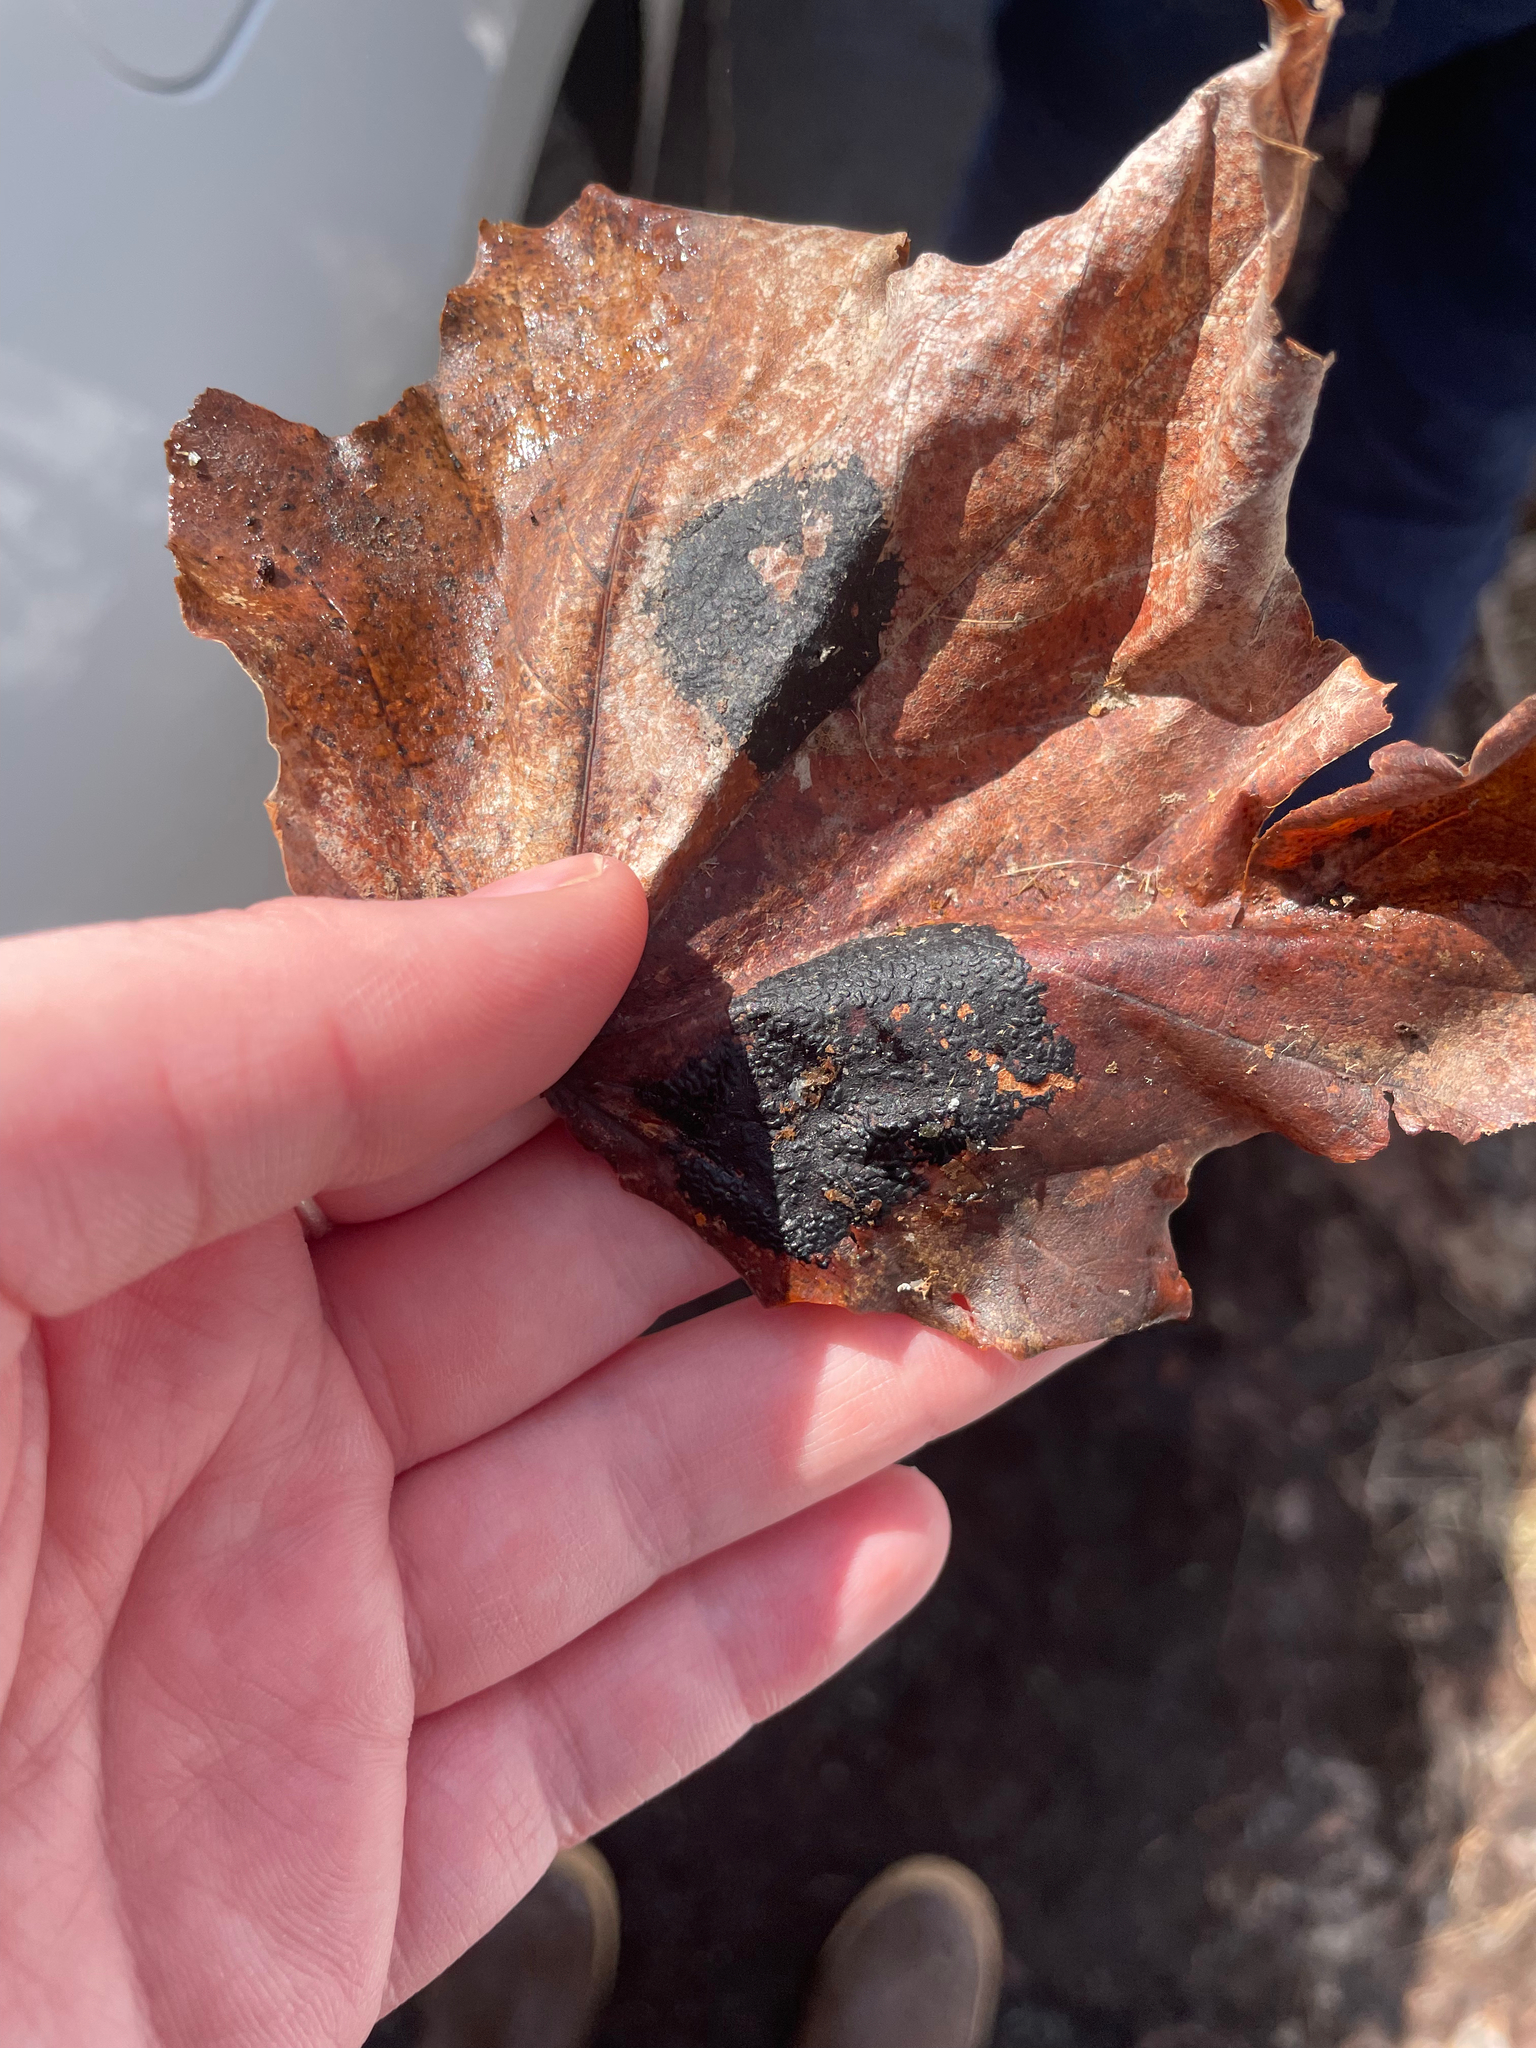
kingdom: Fungi
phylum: Ascomycota
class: Leotiomycetes
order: Rhytismatales
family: Rhytismataceae
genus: Rhytisma
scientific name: Rhytisma acerinum
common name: European tar spot
